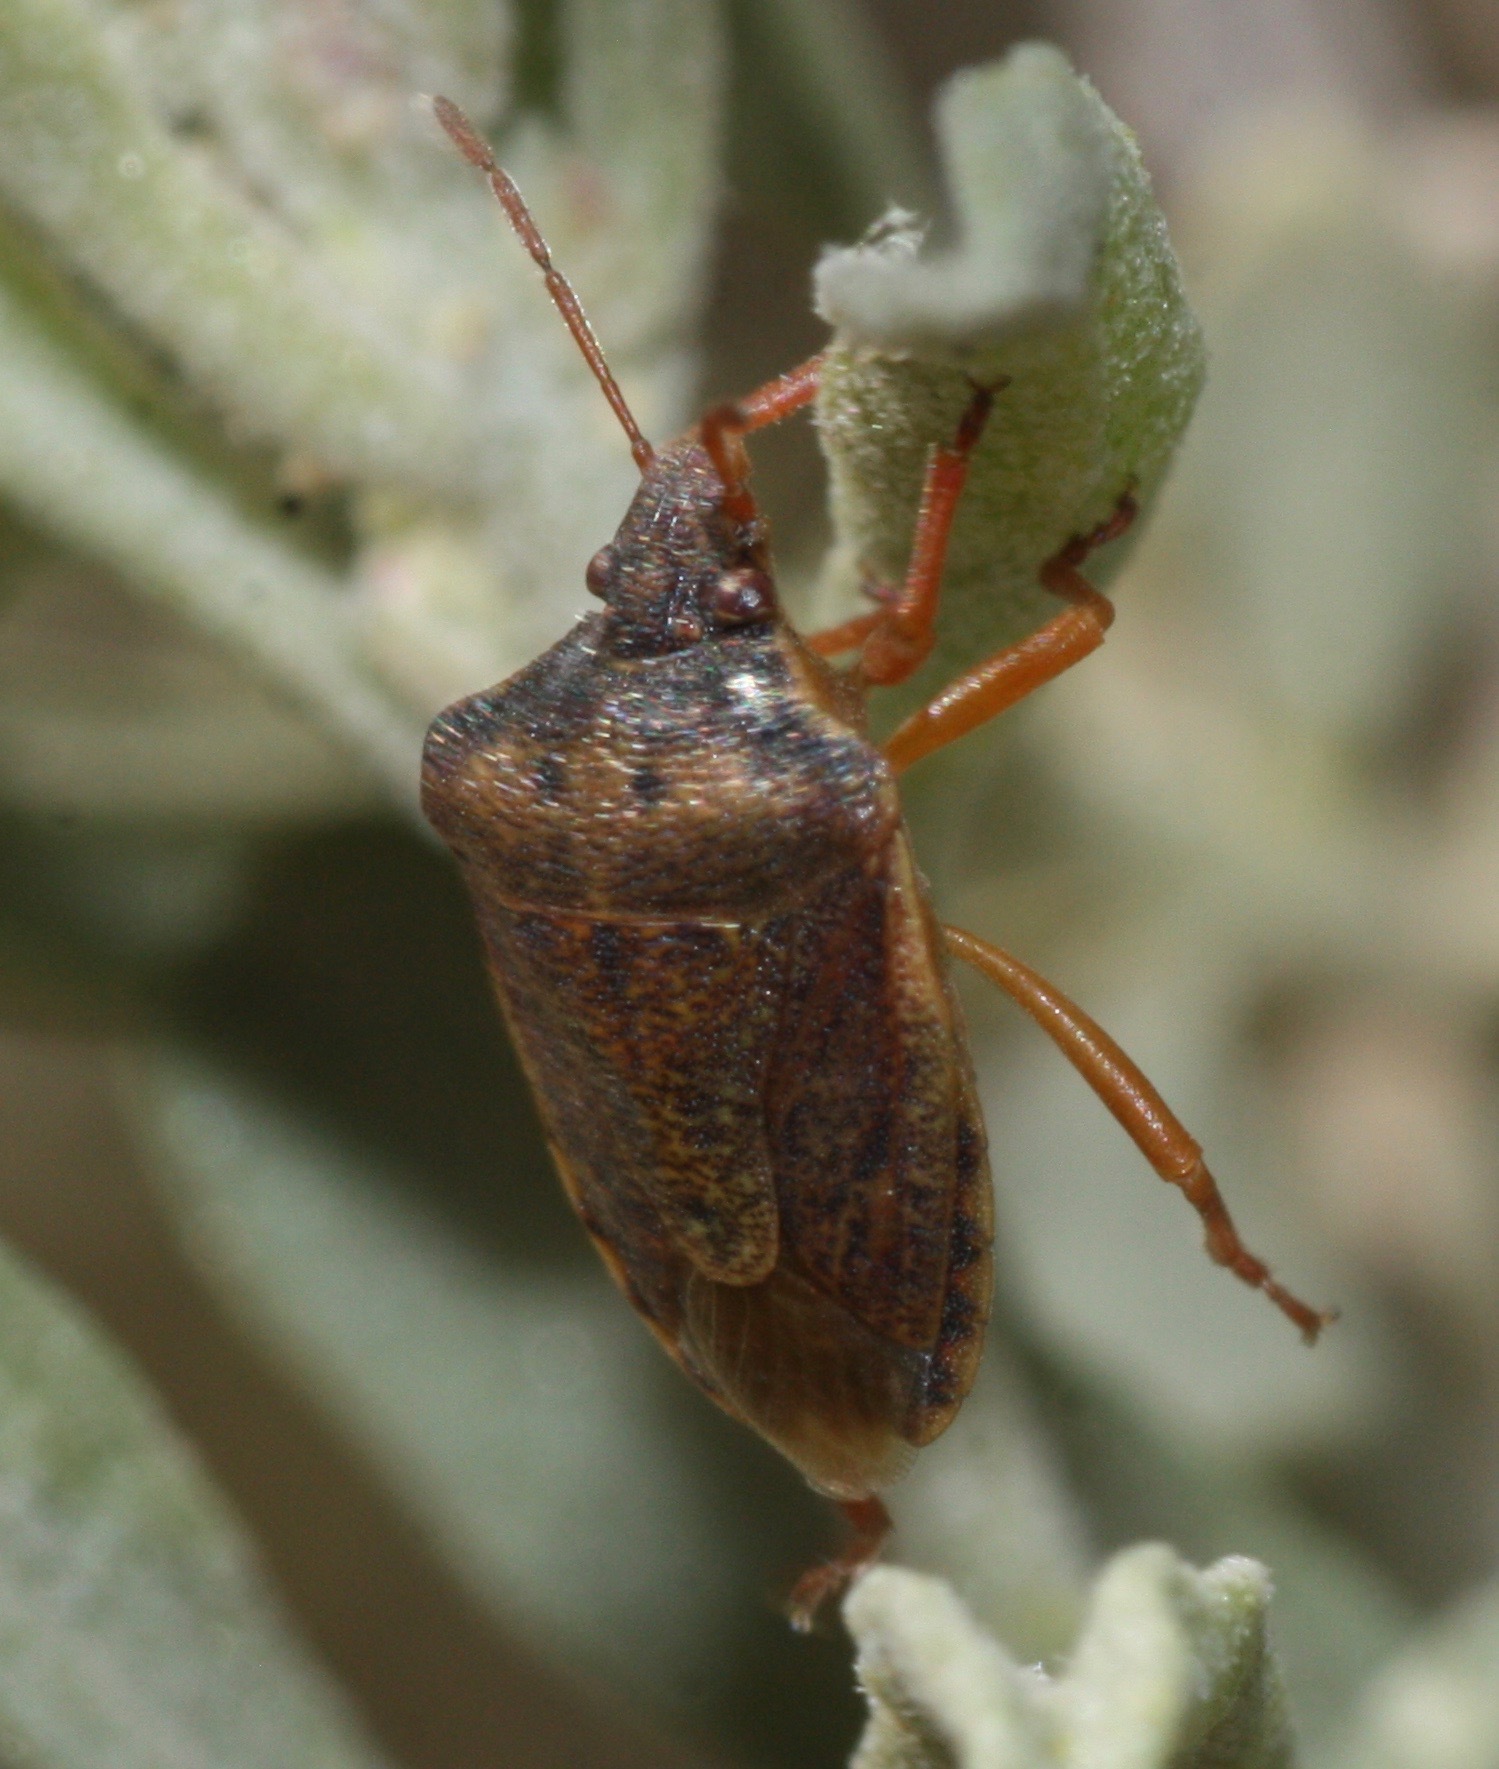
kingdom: Animalia
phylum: Arthropoda
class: Insecta
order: Hemiptera
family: Pentatomidae
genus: Dendrocoris
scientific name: Dendrocoris contaminatus
